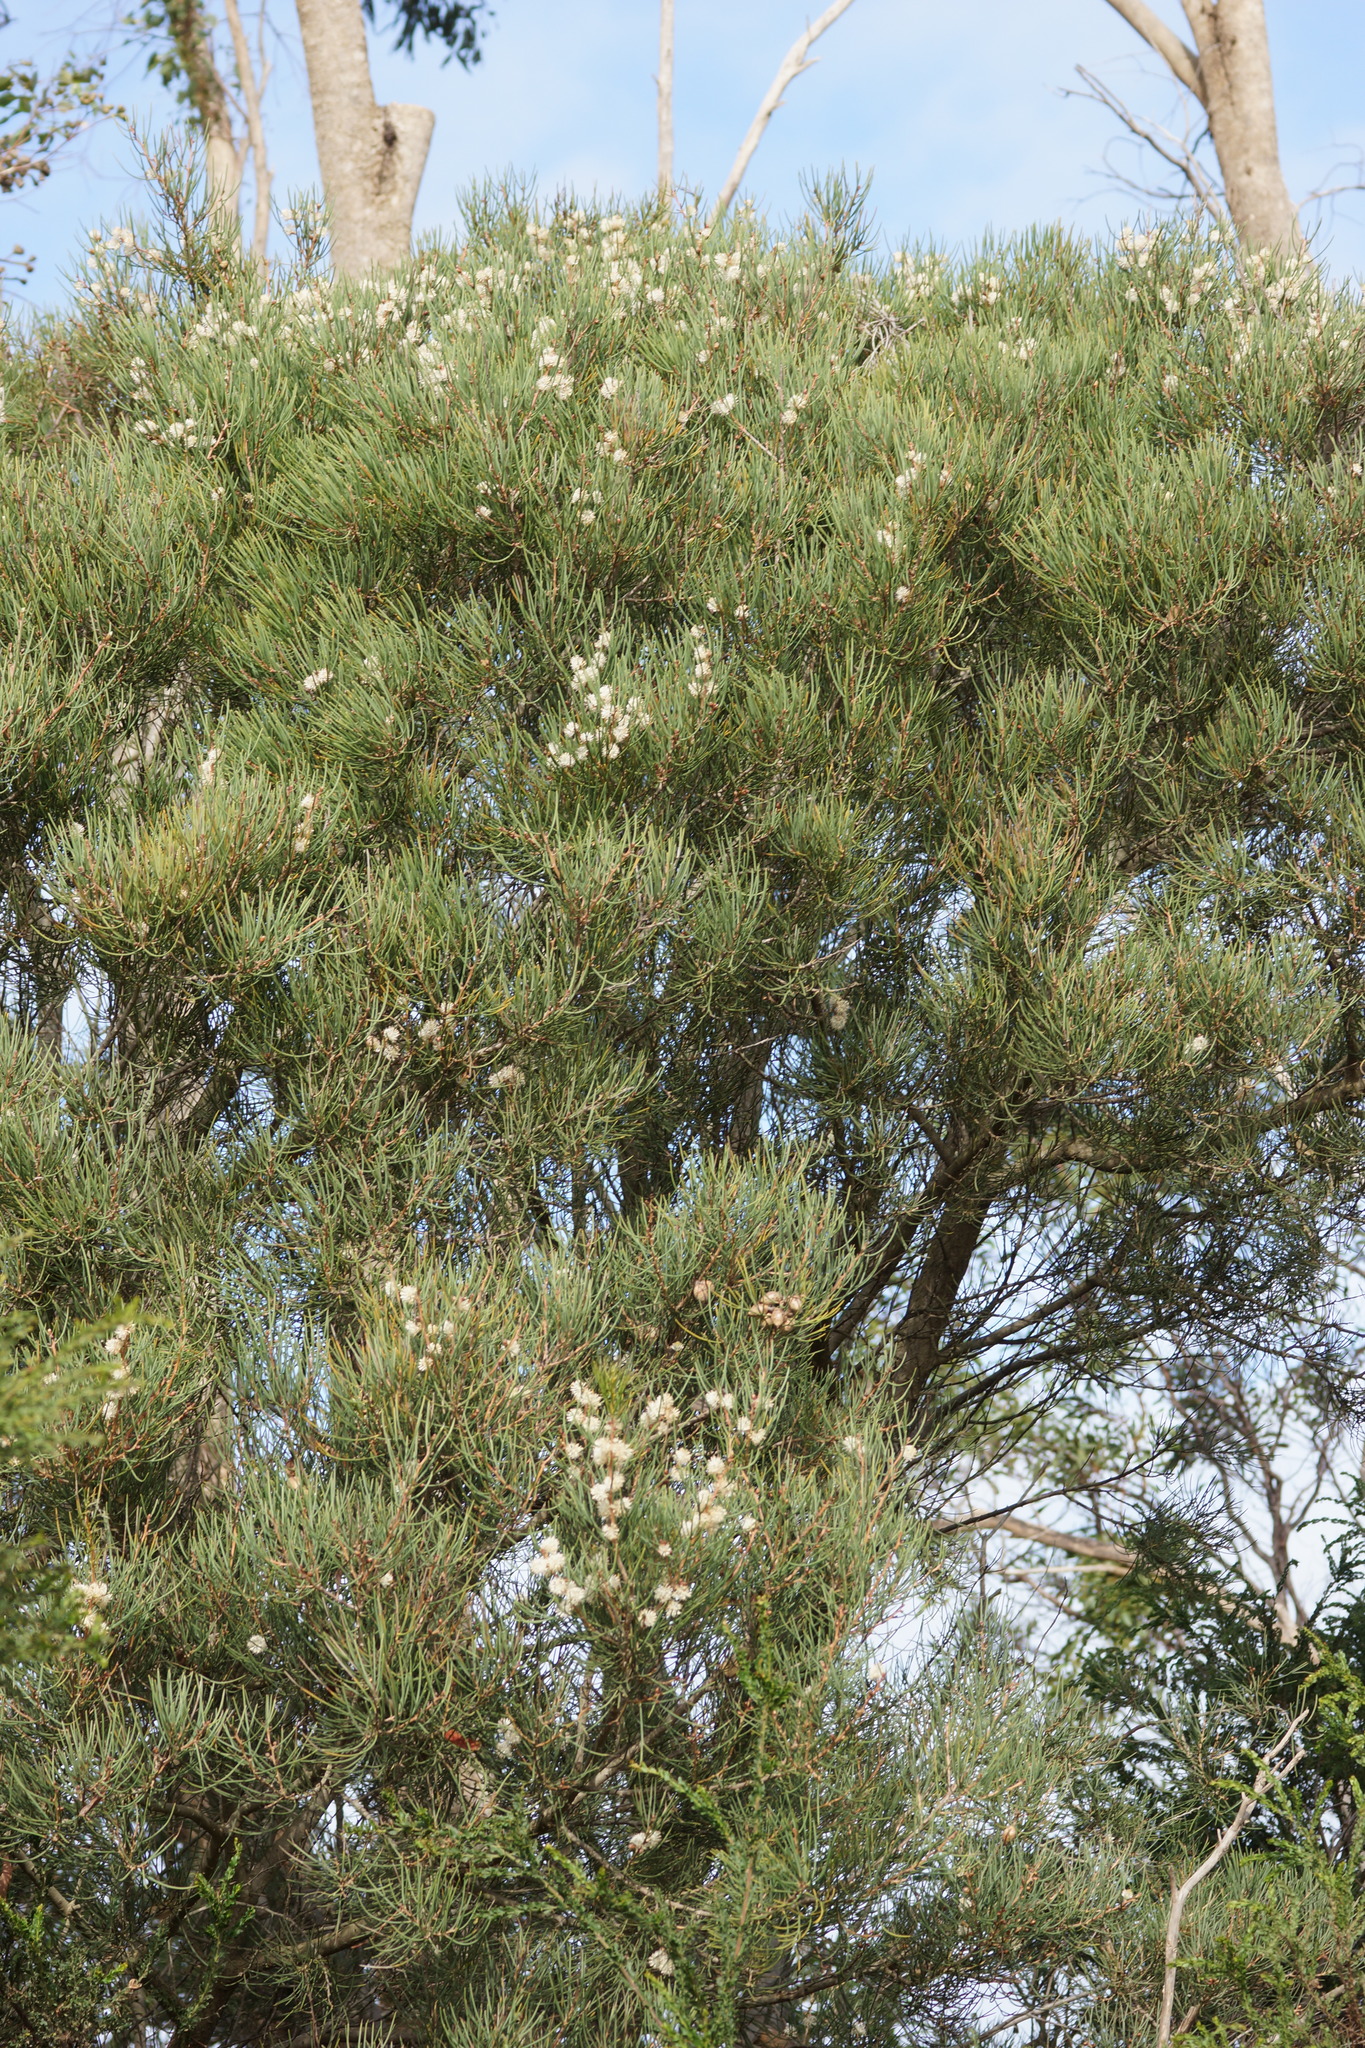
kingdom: Plantae
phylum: Tracheophyta
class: Magnoliopsida
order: Proteales
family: Proteaceae
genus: Hakea
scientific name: Hakea drupacea
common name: Sweet hakea
